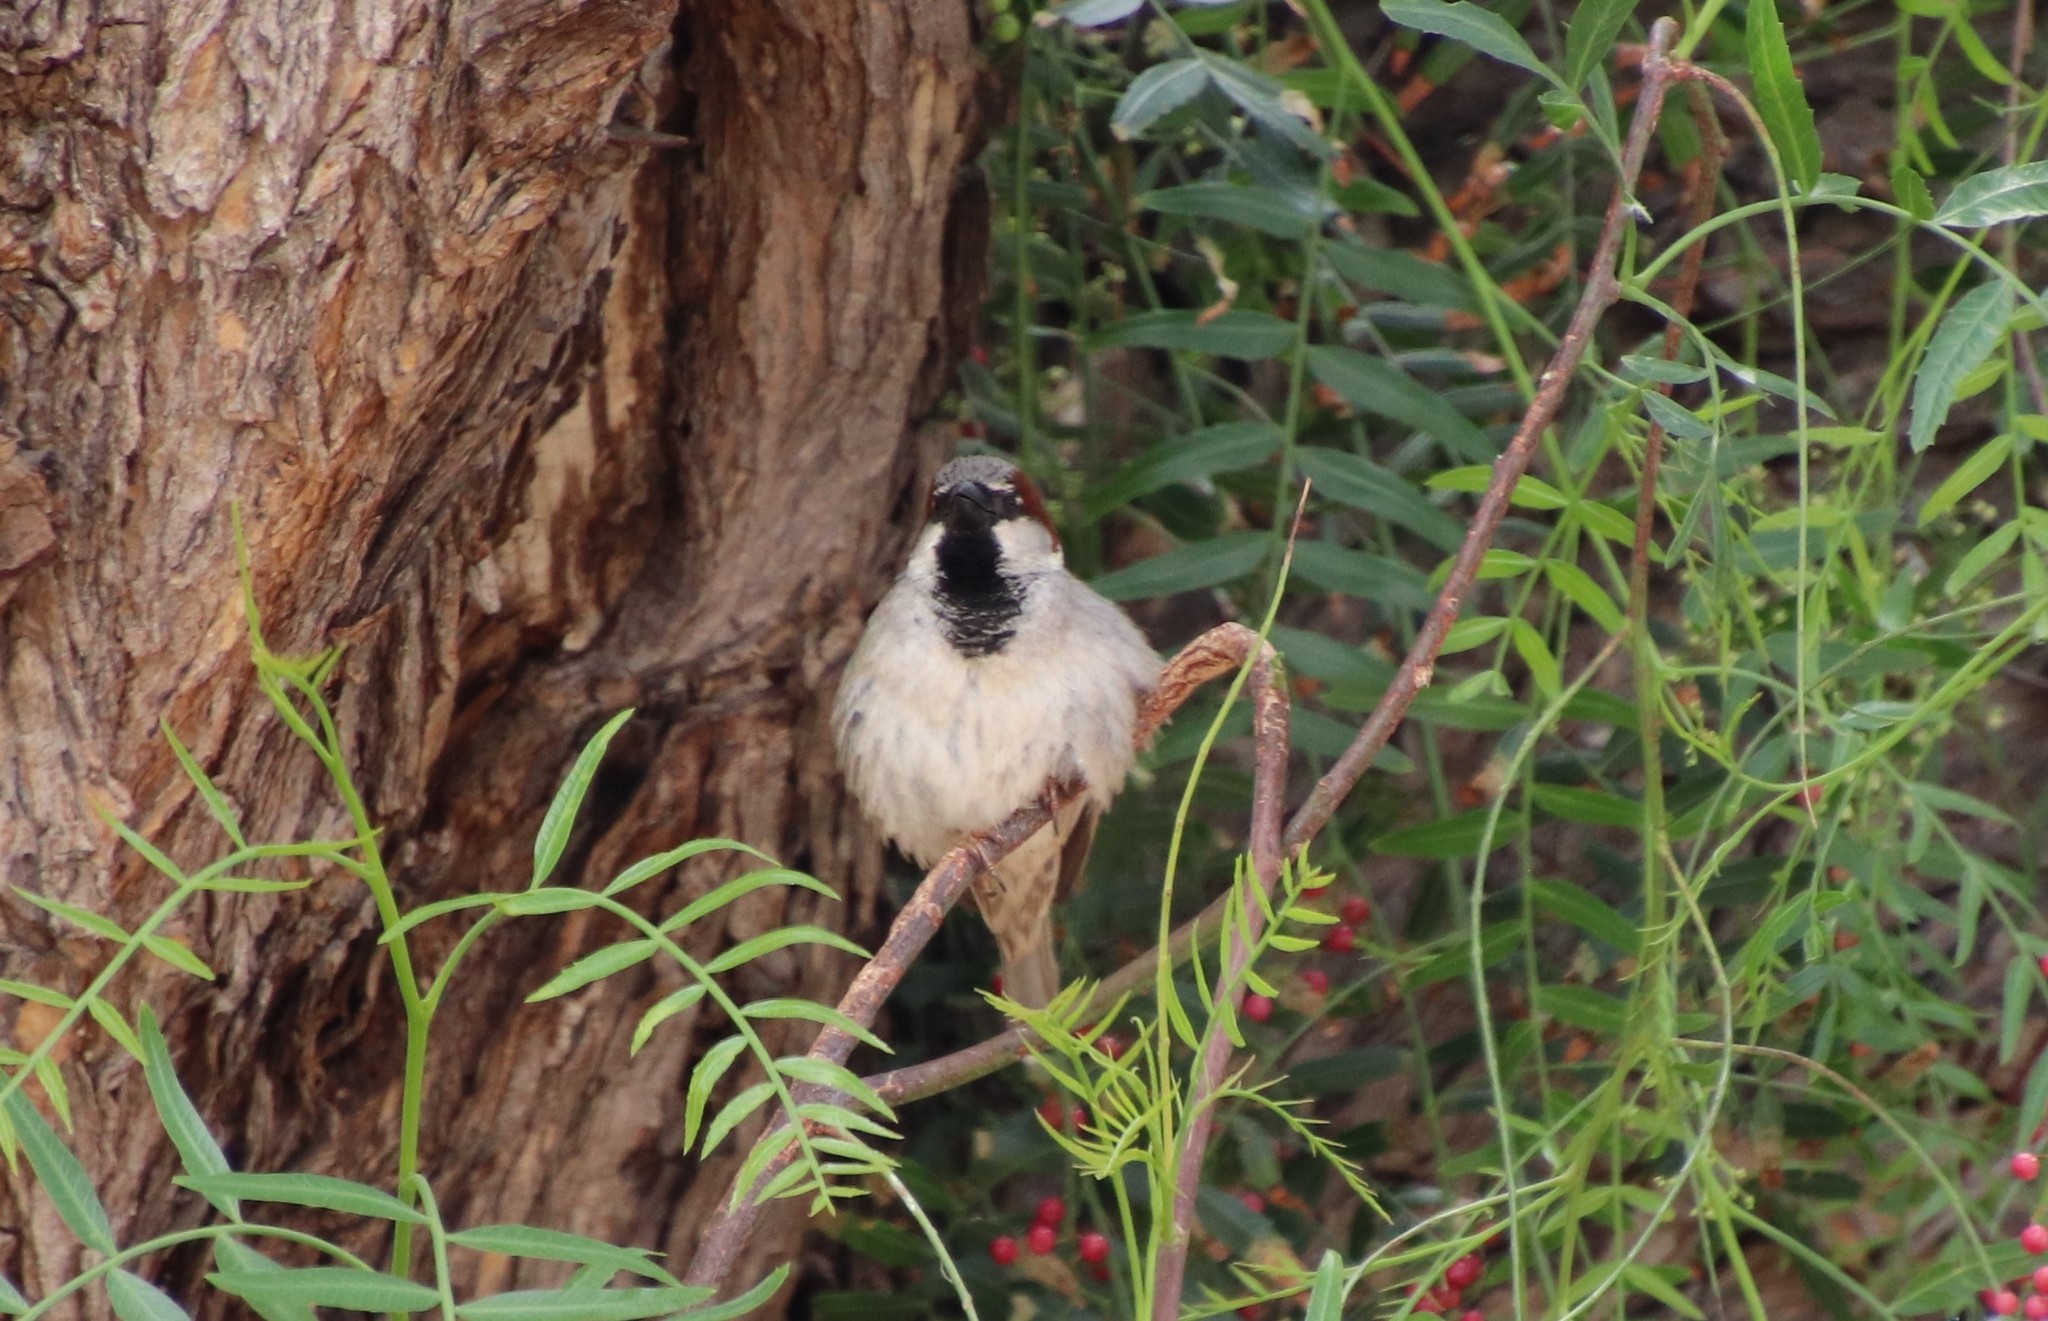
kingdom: Animalia
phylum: Chordata
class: Aves
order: Passeriformes
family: Passeridae
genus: Passer
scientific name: Passer domesticus
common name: House sparrow
